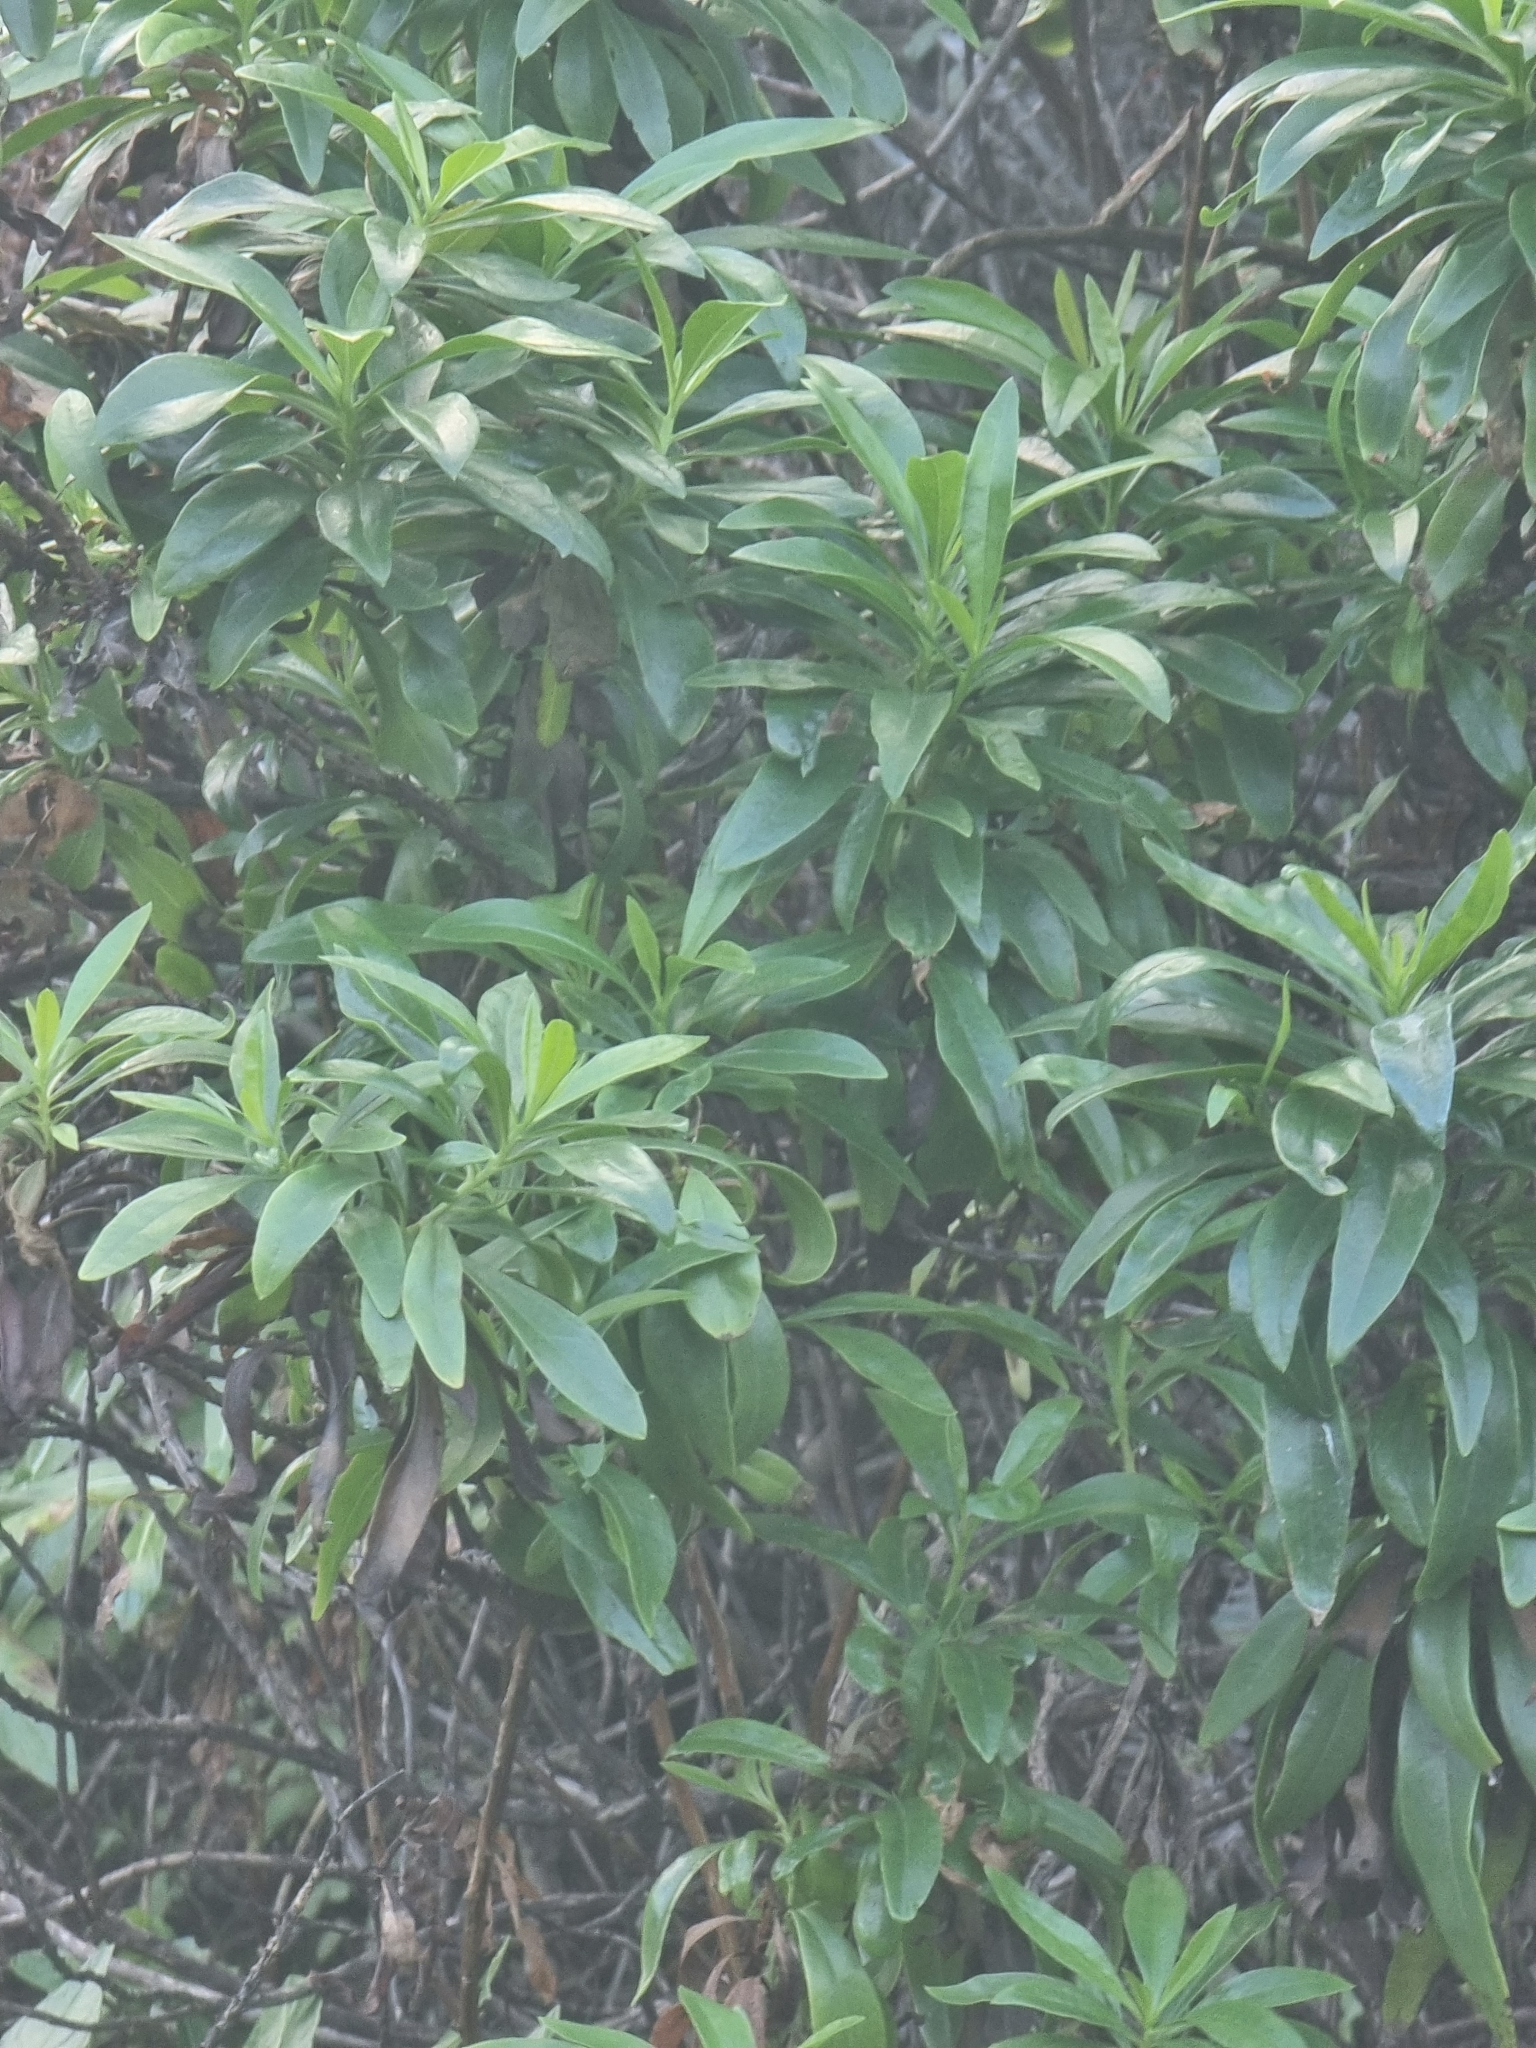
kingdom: Plantae
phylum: Tracheophyta
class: Magnoliopsida
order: Lamiales
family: Plantaginaceae
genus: Globularia
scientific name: Globularia salicina
